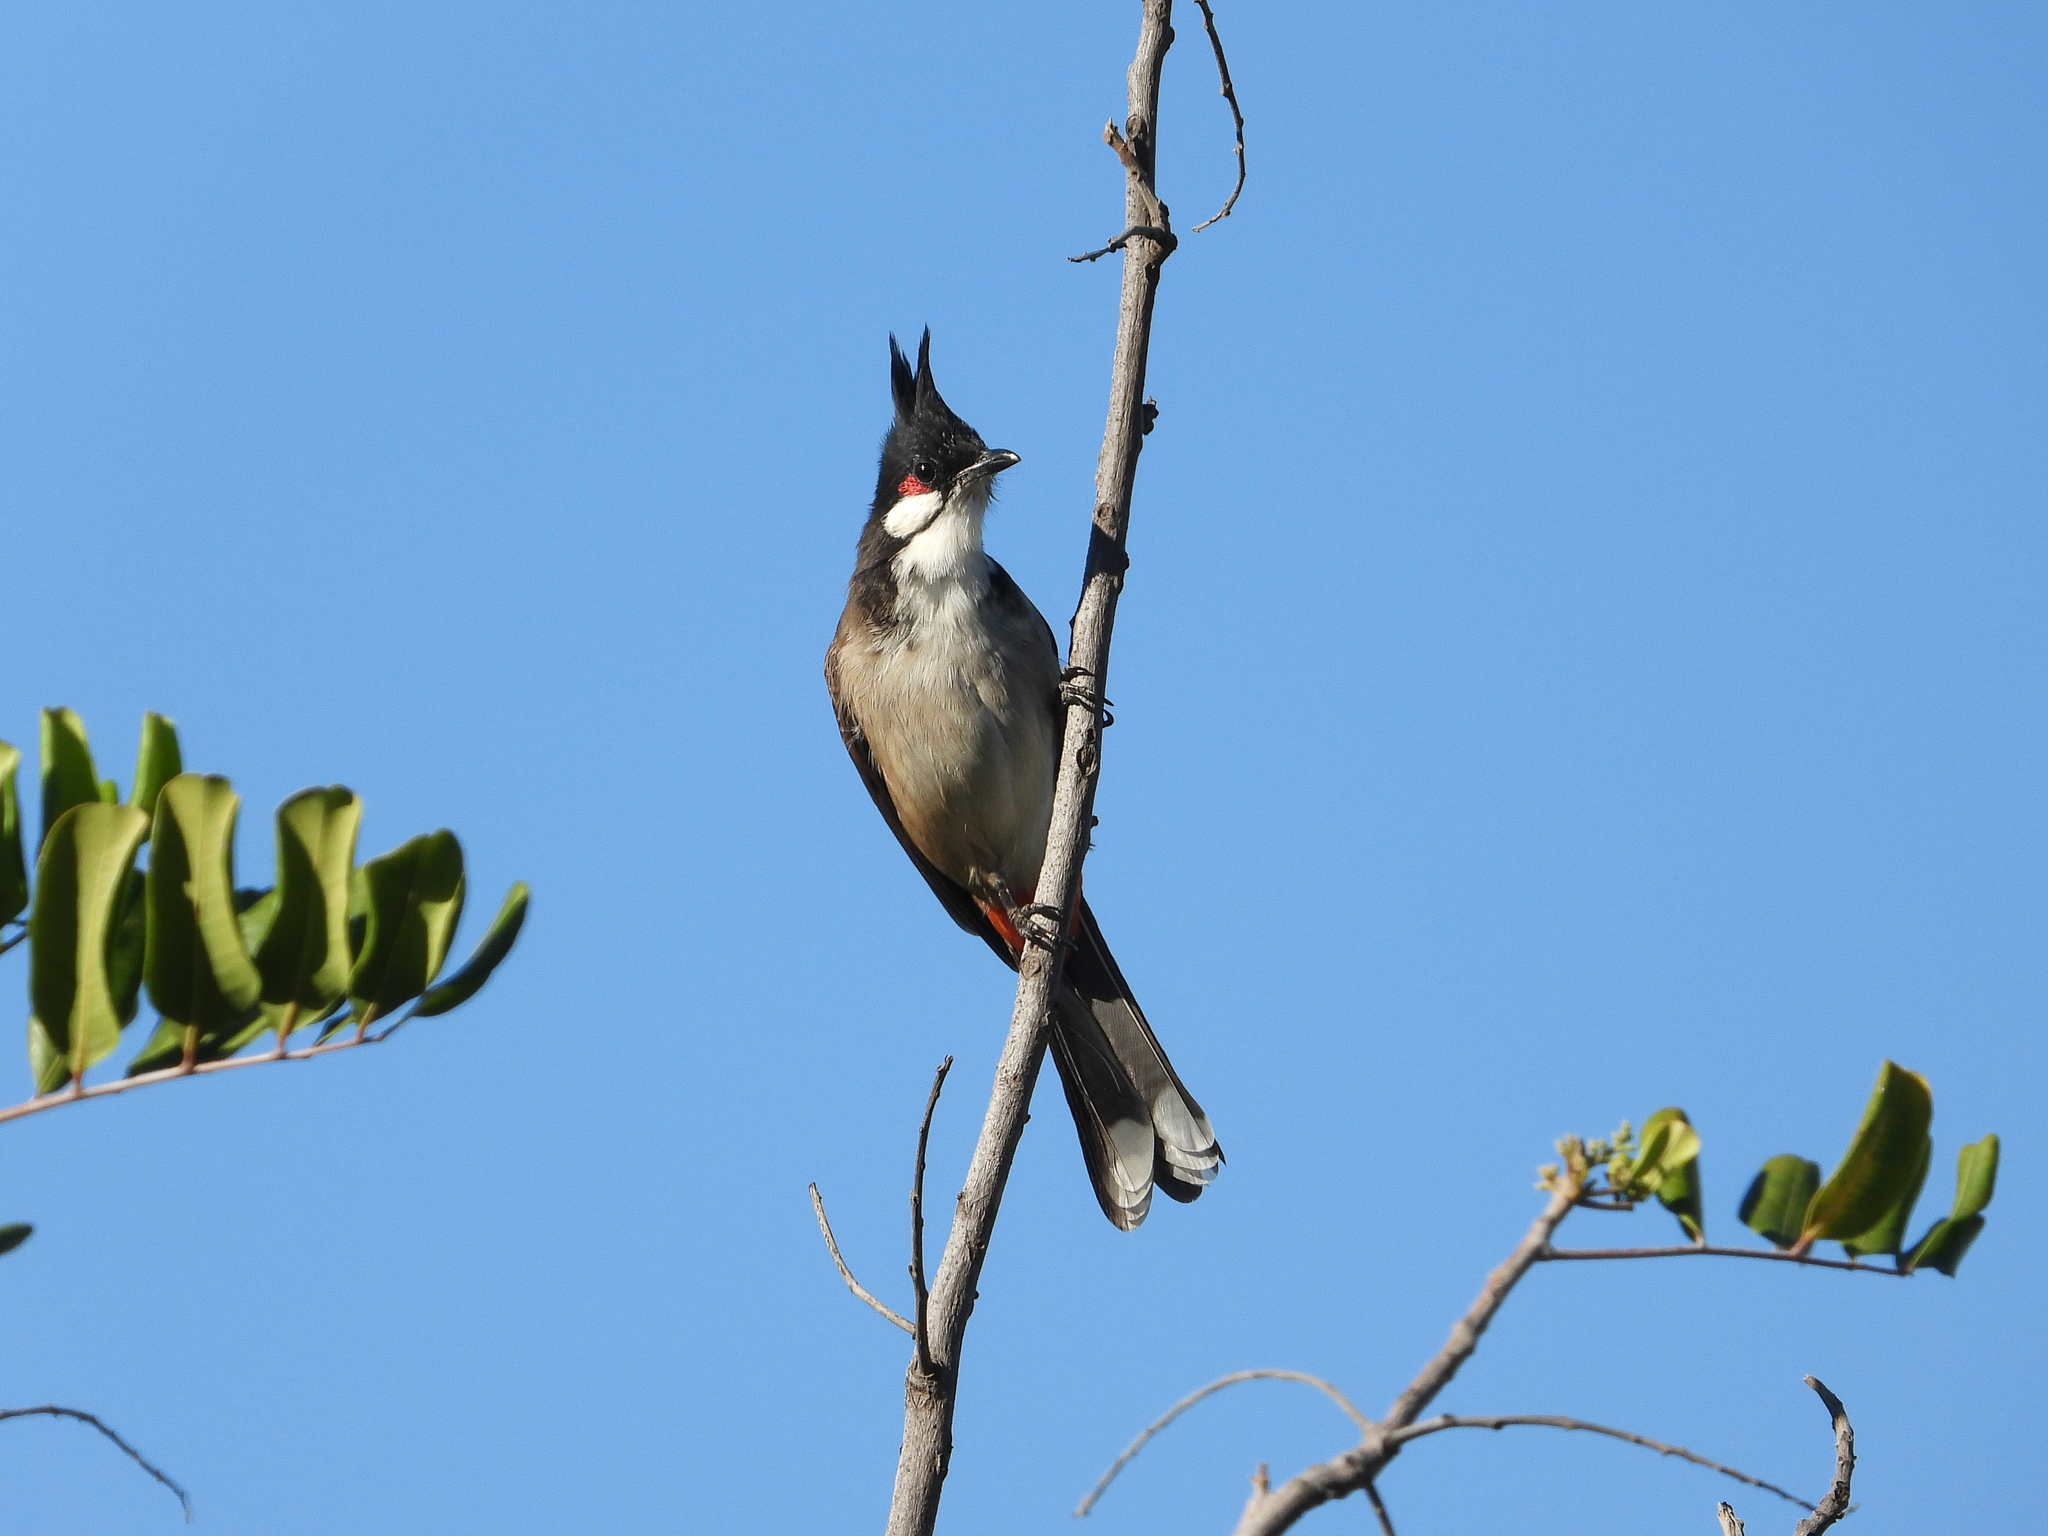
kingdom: Animalia
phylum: Chordata
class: Aves
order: Passeriformes
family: Pycnonotidae
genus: Pycnonotus
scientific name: Pycnonotus jocosus
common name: Red-whiskered bulbul
